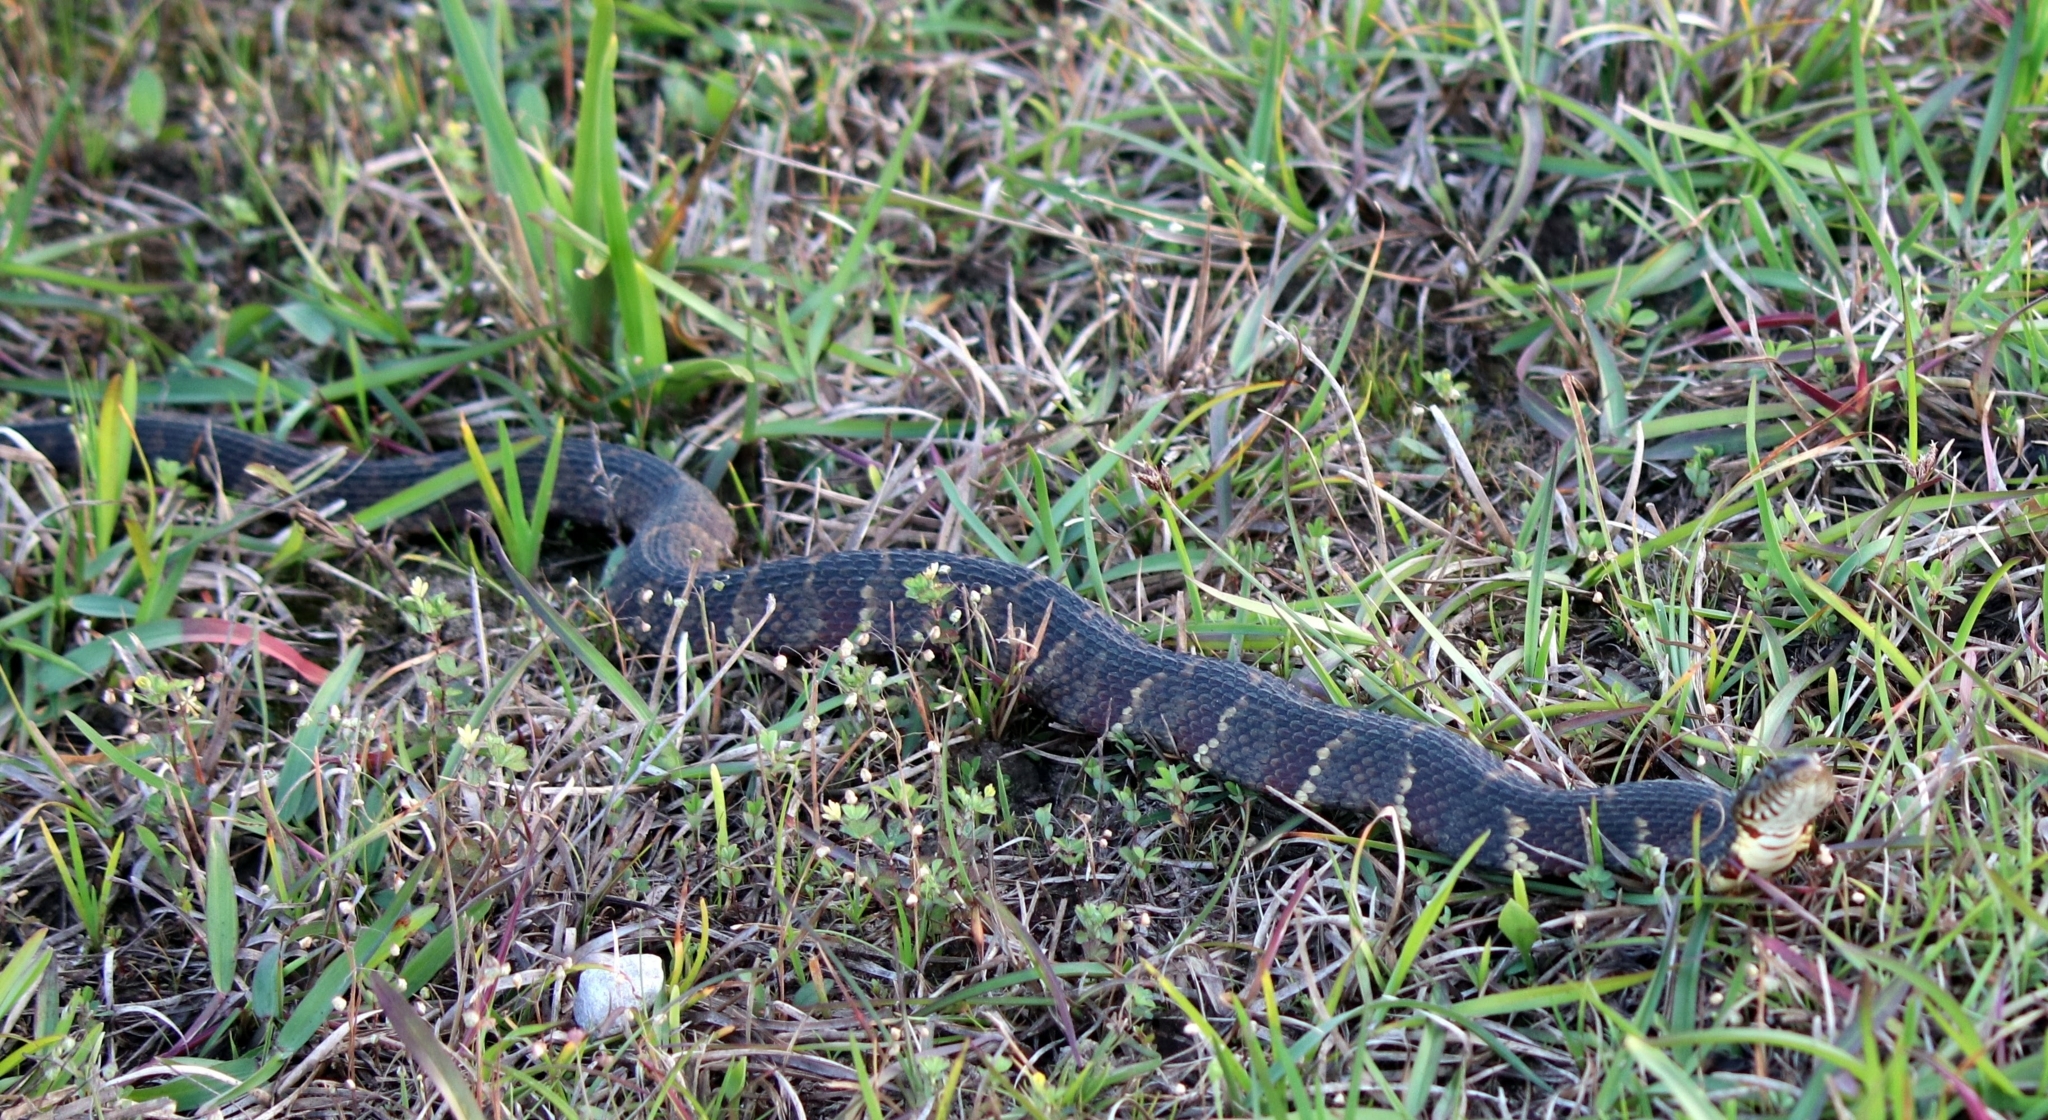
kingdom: Animalia
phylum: Chordata
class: Squamata
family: Colubridae
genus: Nerodia
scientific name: Nerodia fasciata
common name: Southern water snake
